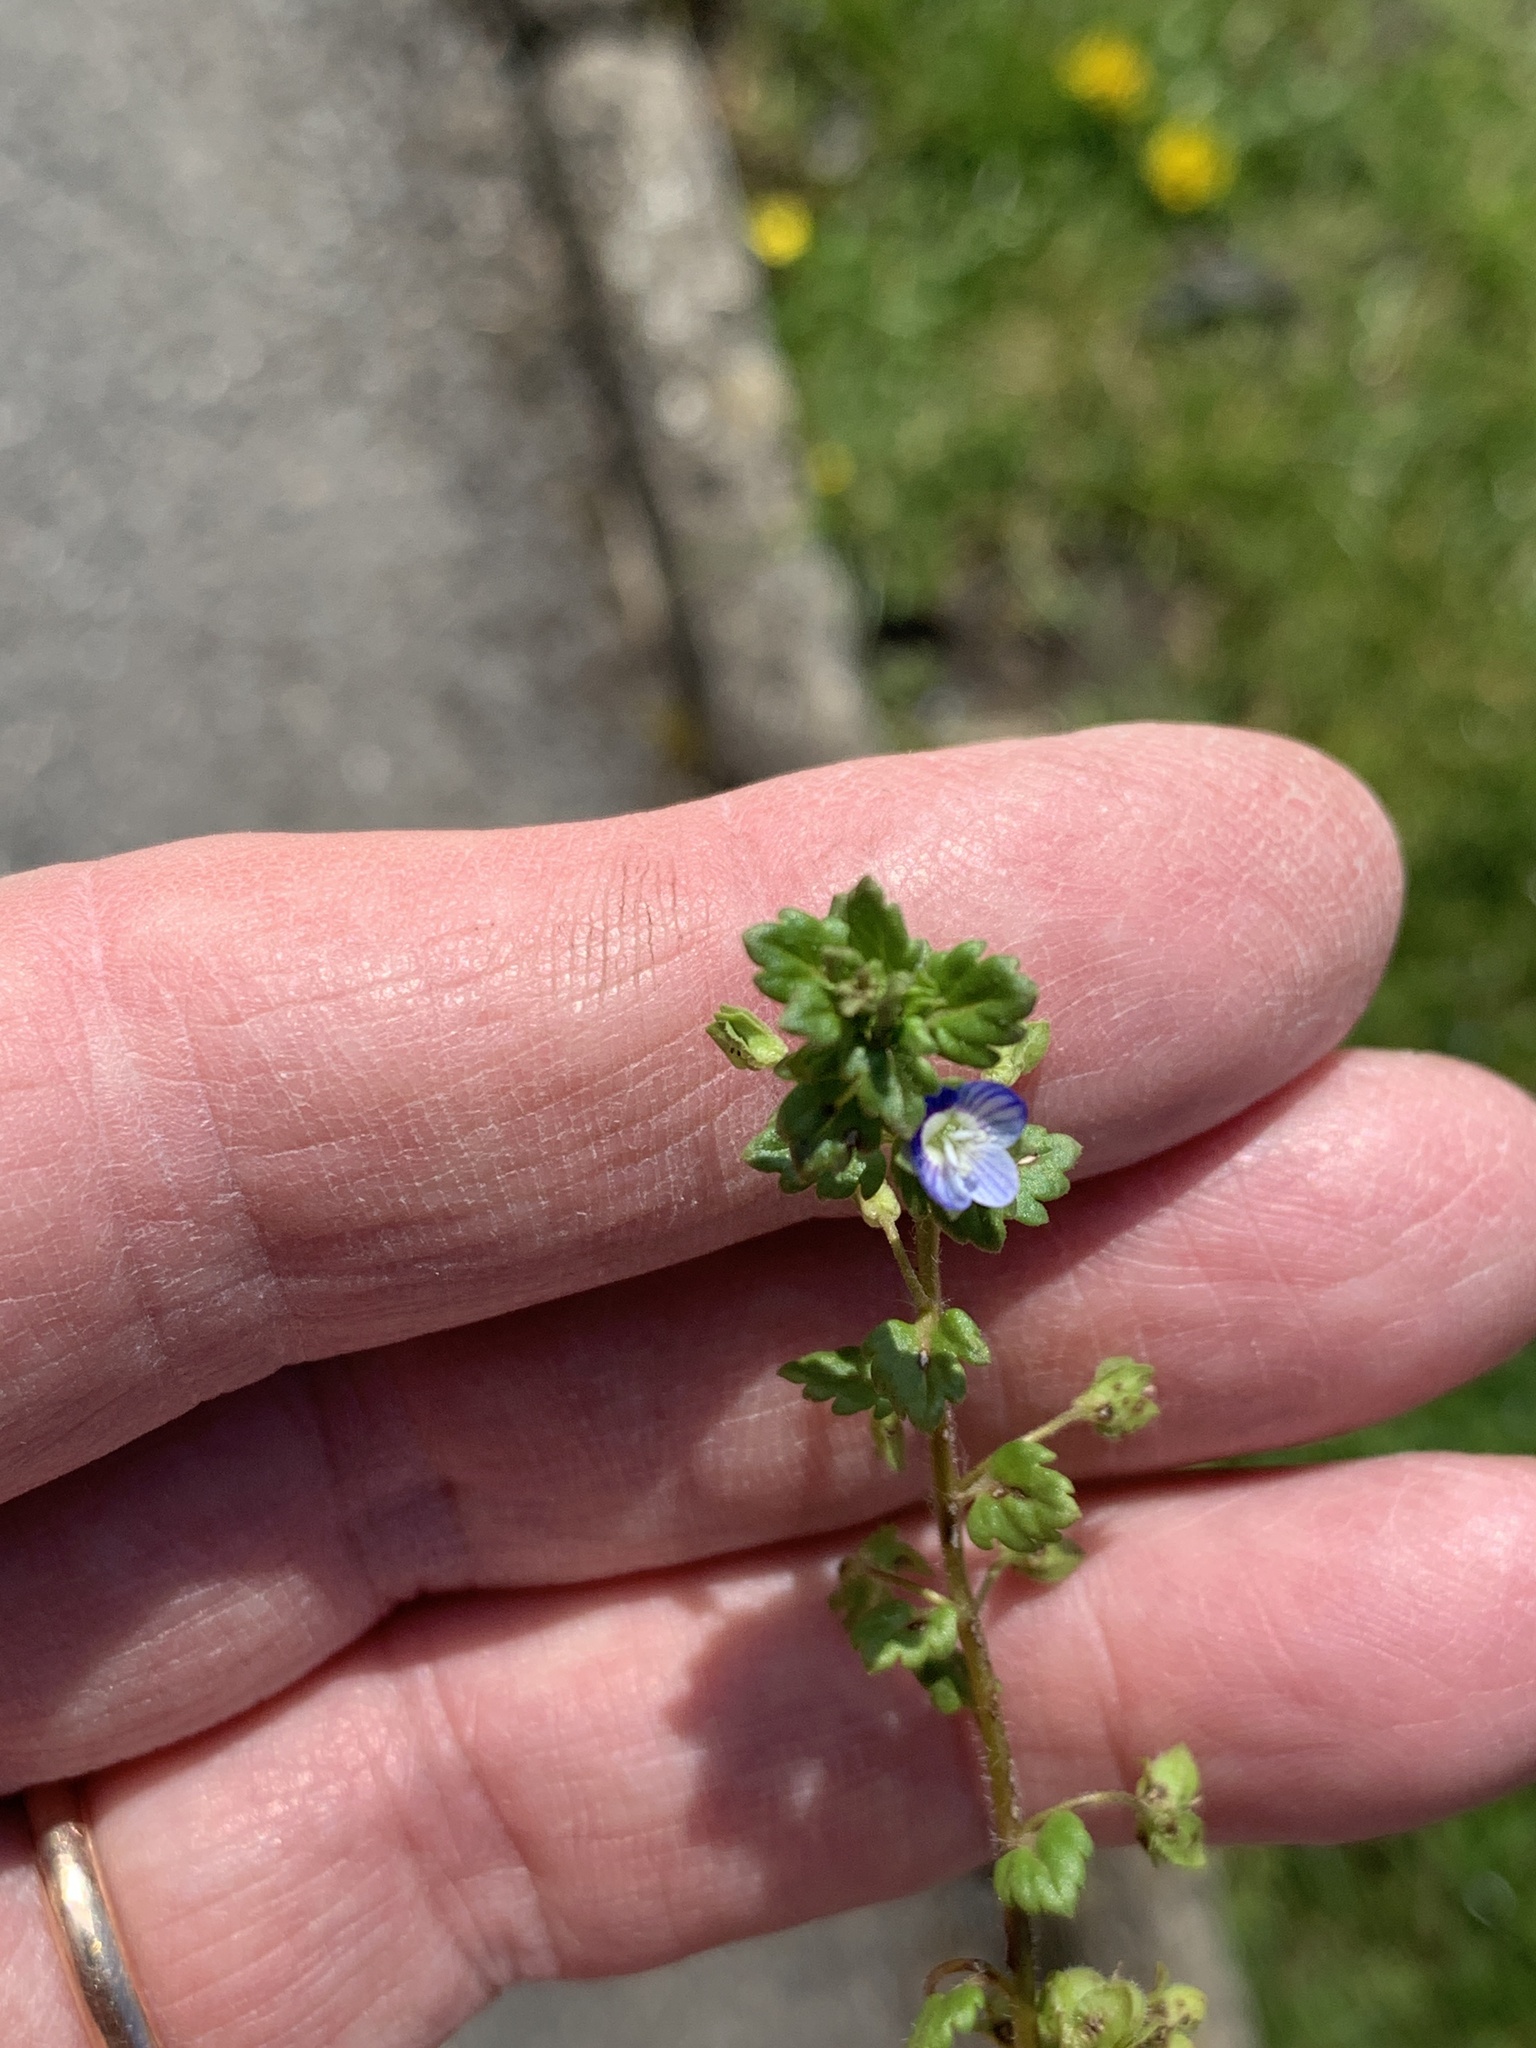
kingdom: Plantae
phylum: Tracheophyta
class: Magnoliopsida
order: Lamiales
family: Plantaginaceae
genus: Veronica
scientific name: Veronica polita
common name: Grey field-speedwell
